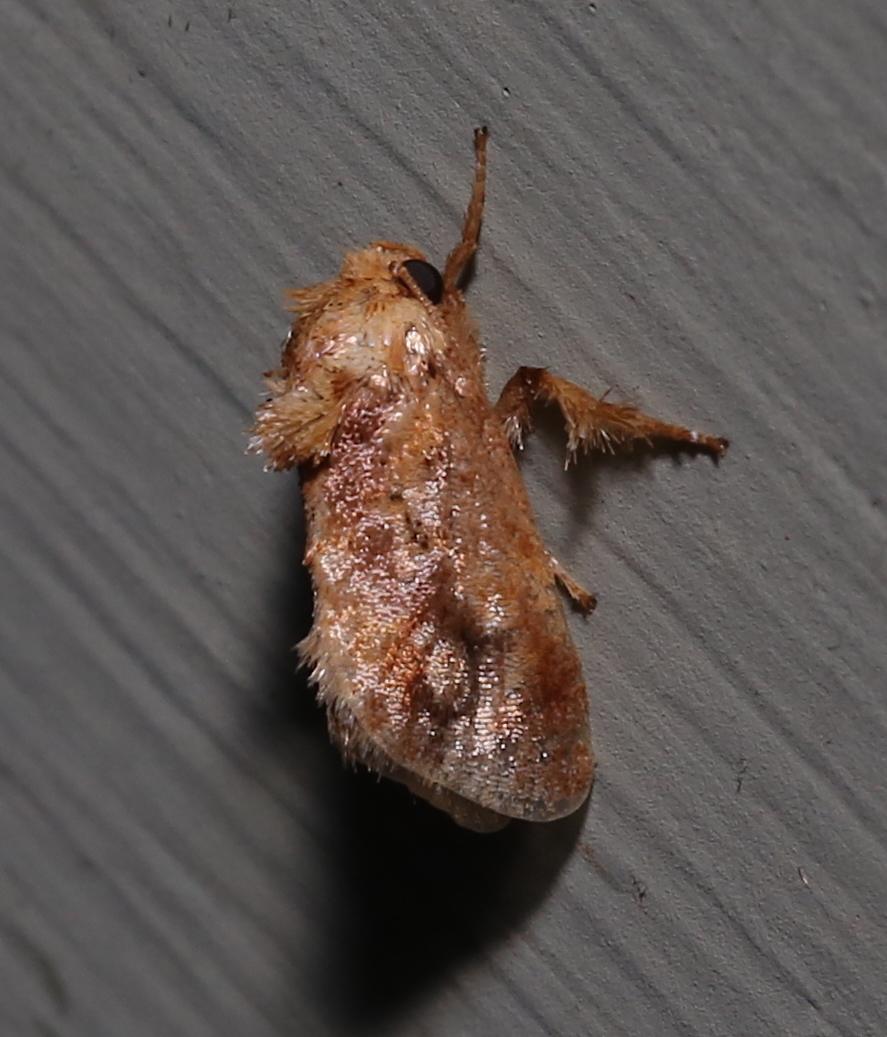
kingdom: Animalia
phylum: Arthropoda
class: Insecta
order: Lepidoptera
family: Limacodidae
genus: Isochaetes
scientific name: Isochaetes beutenmuelleri
